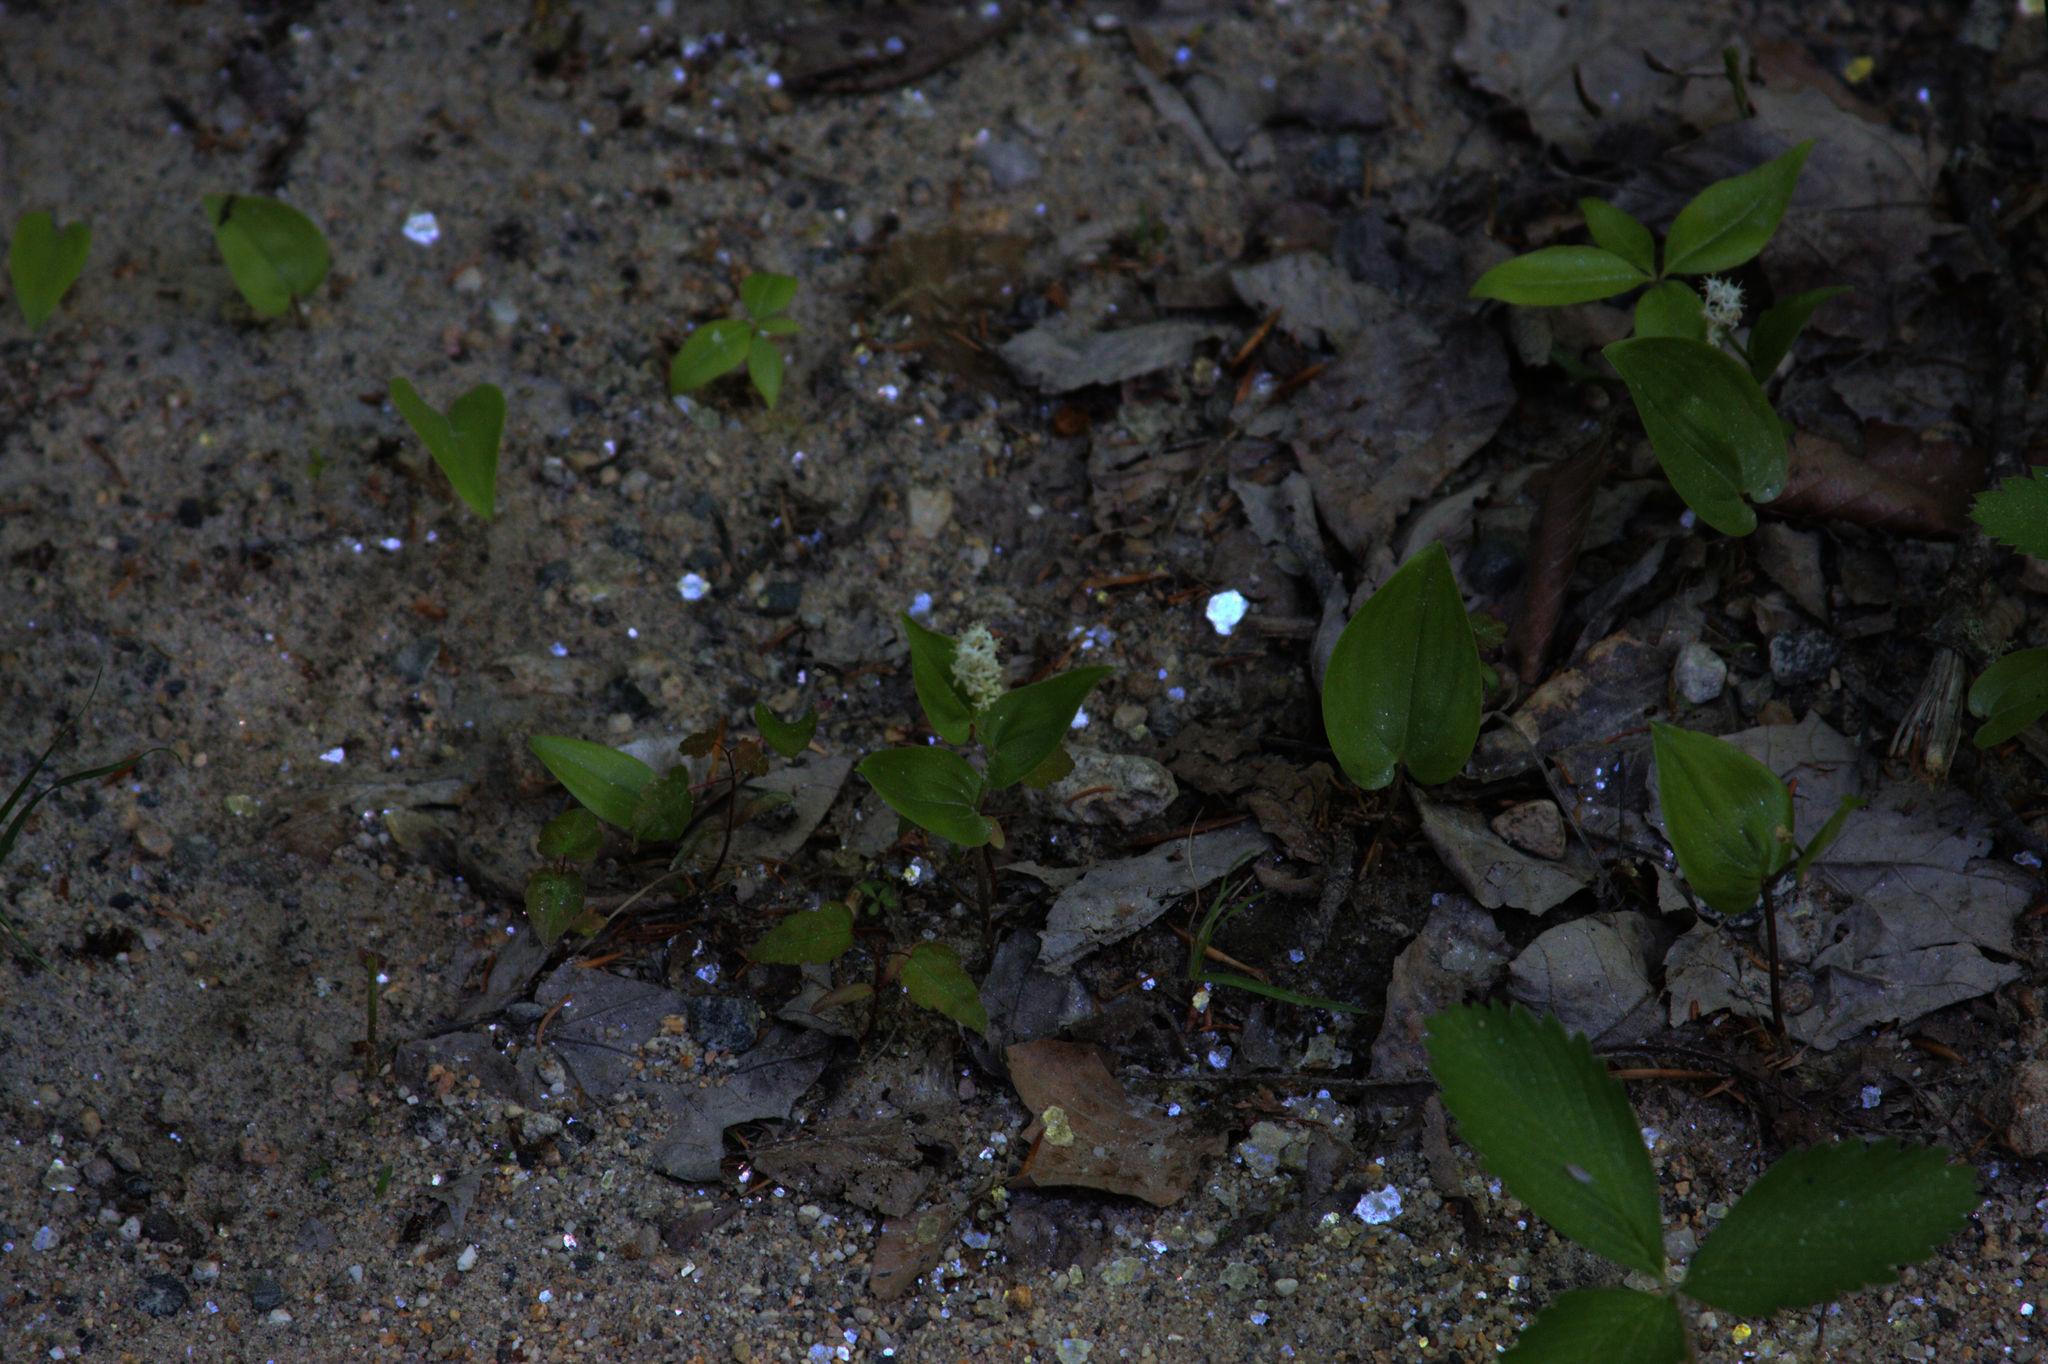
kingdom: Plantae
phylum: Tracheophyta
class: Liliopsida
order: Asparagales
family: Asparagaceae
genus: Maianthemum
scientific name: Maianthemum canadense
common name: False lily-of-the-valley
